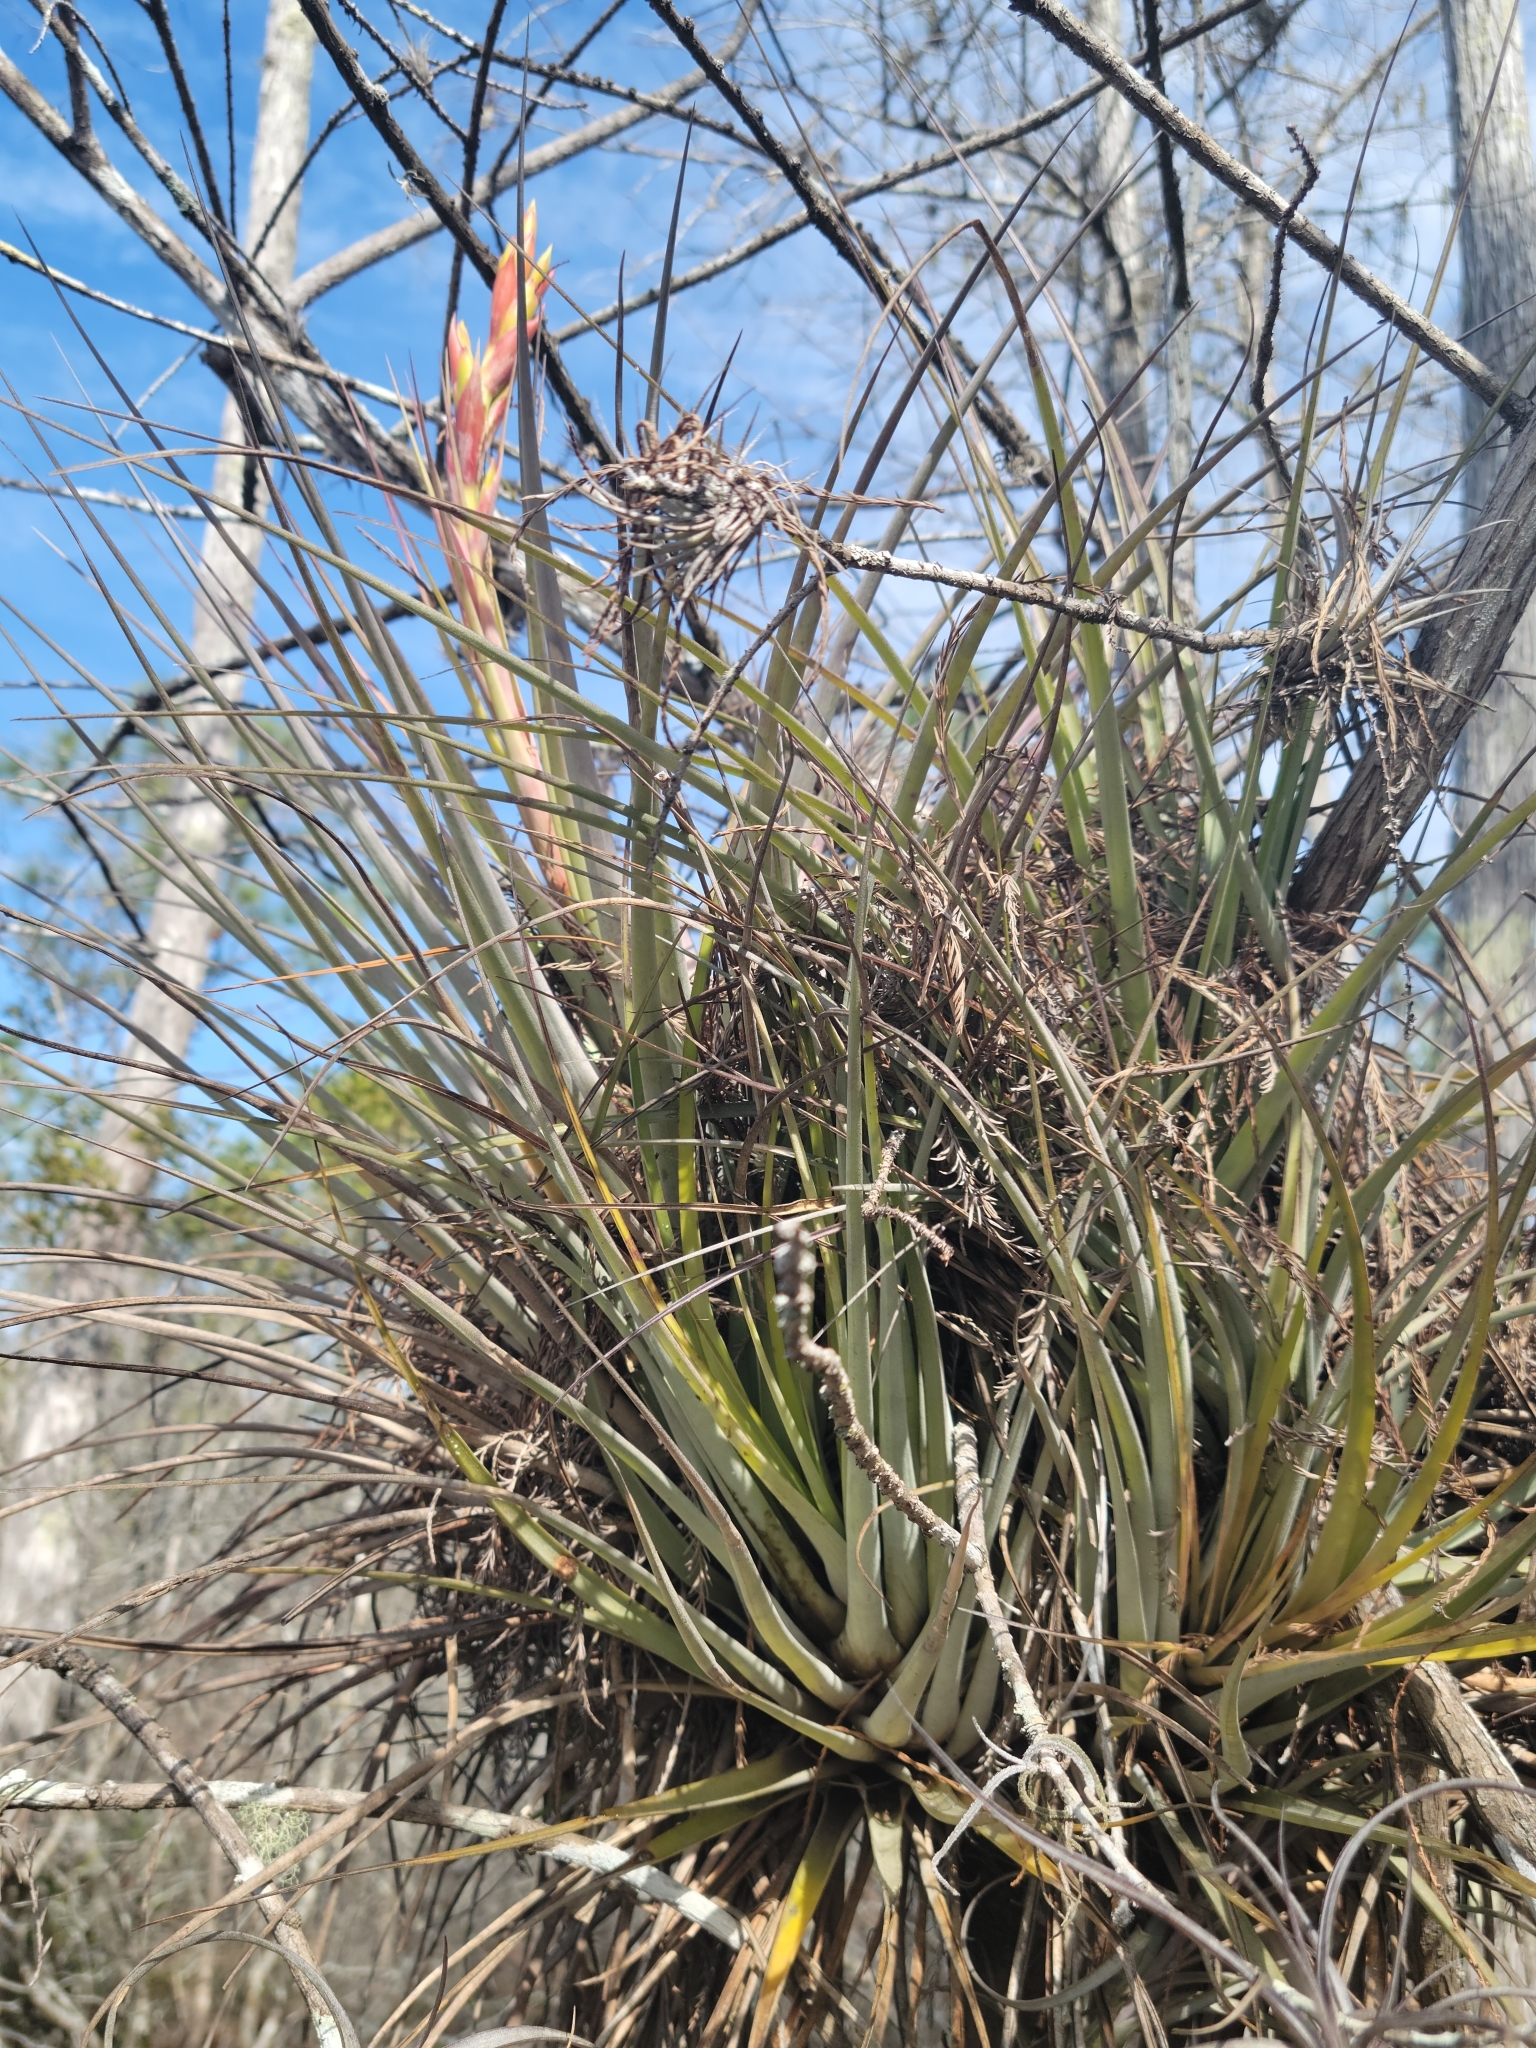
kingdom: Plantae
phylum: Tracheophyta
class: Liliopsida
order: Poales
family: Bromeliaceae
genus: Tillandsia
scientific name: Tillandsia fasciculata
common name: Giant airplant
